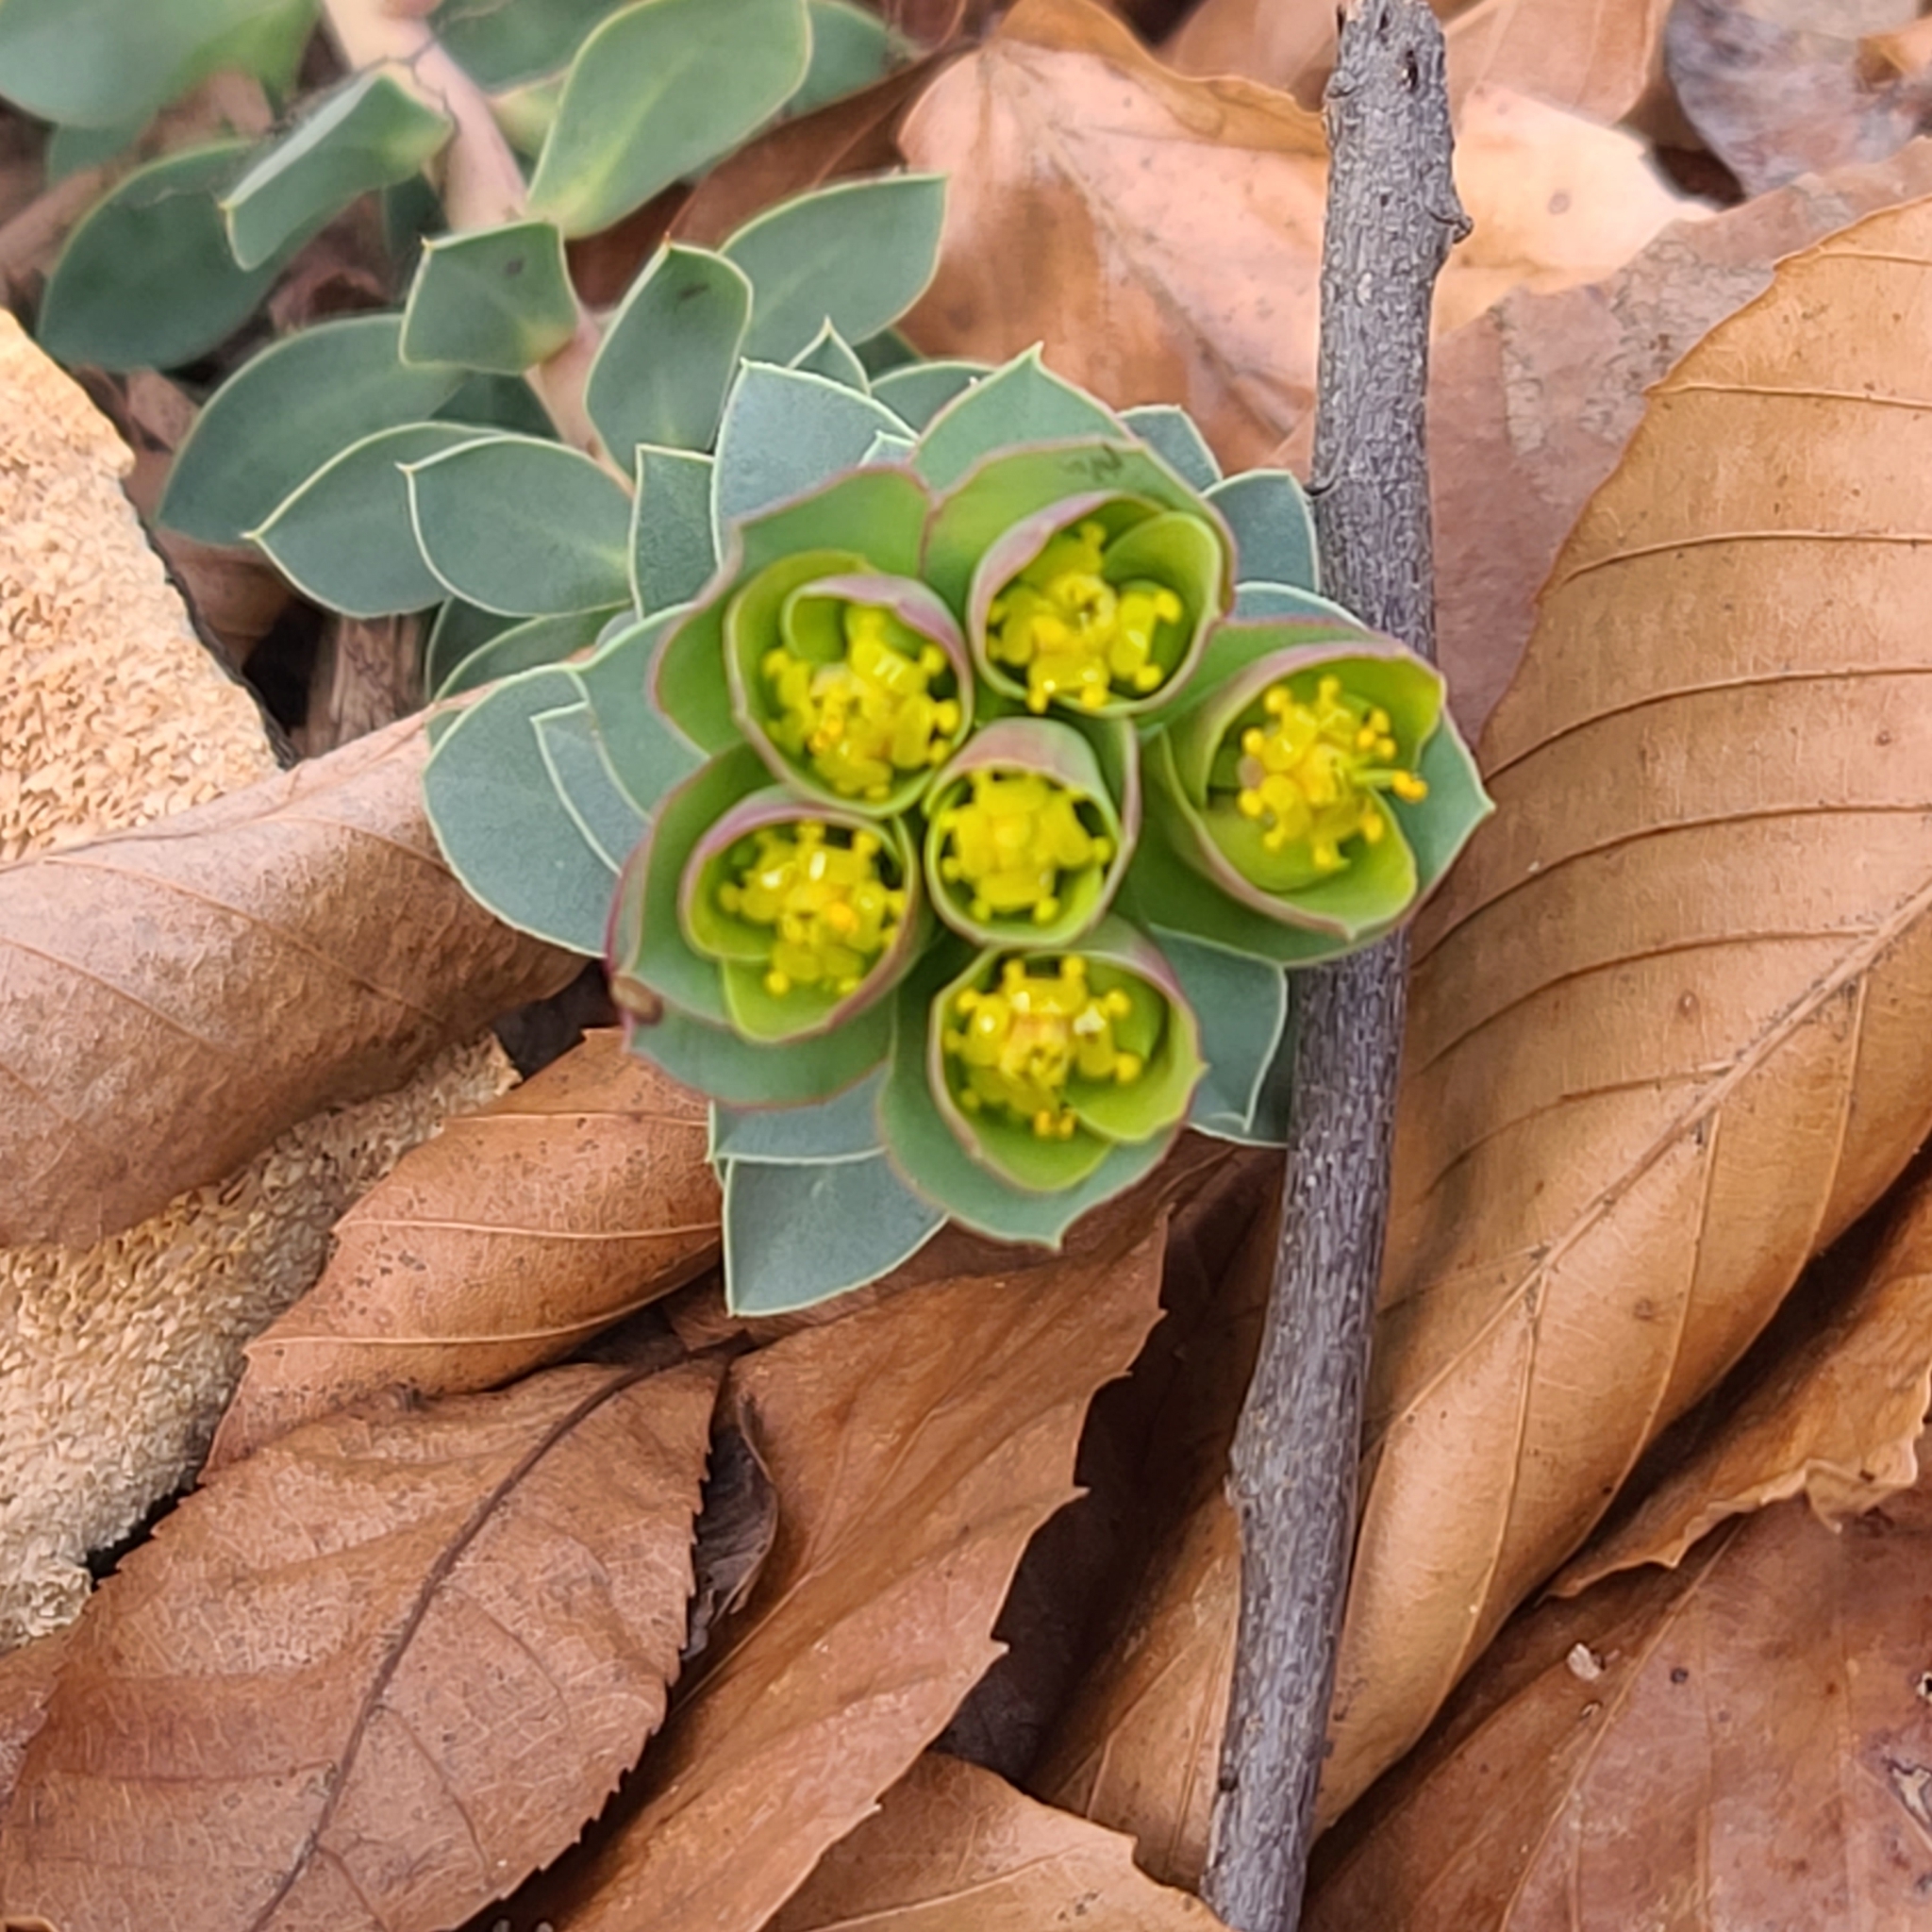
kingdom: Plantae
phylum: Tracheophyta
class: Magnoliopsida
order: Malpighiales
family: Euphorbiaceae
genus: Euphorbia
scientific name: Euphorbia myrsinites
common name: Myrtle spurge
